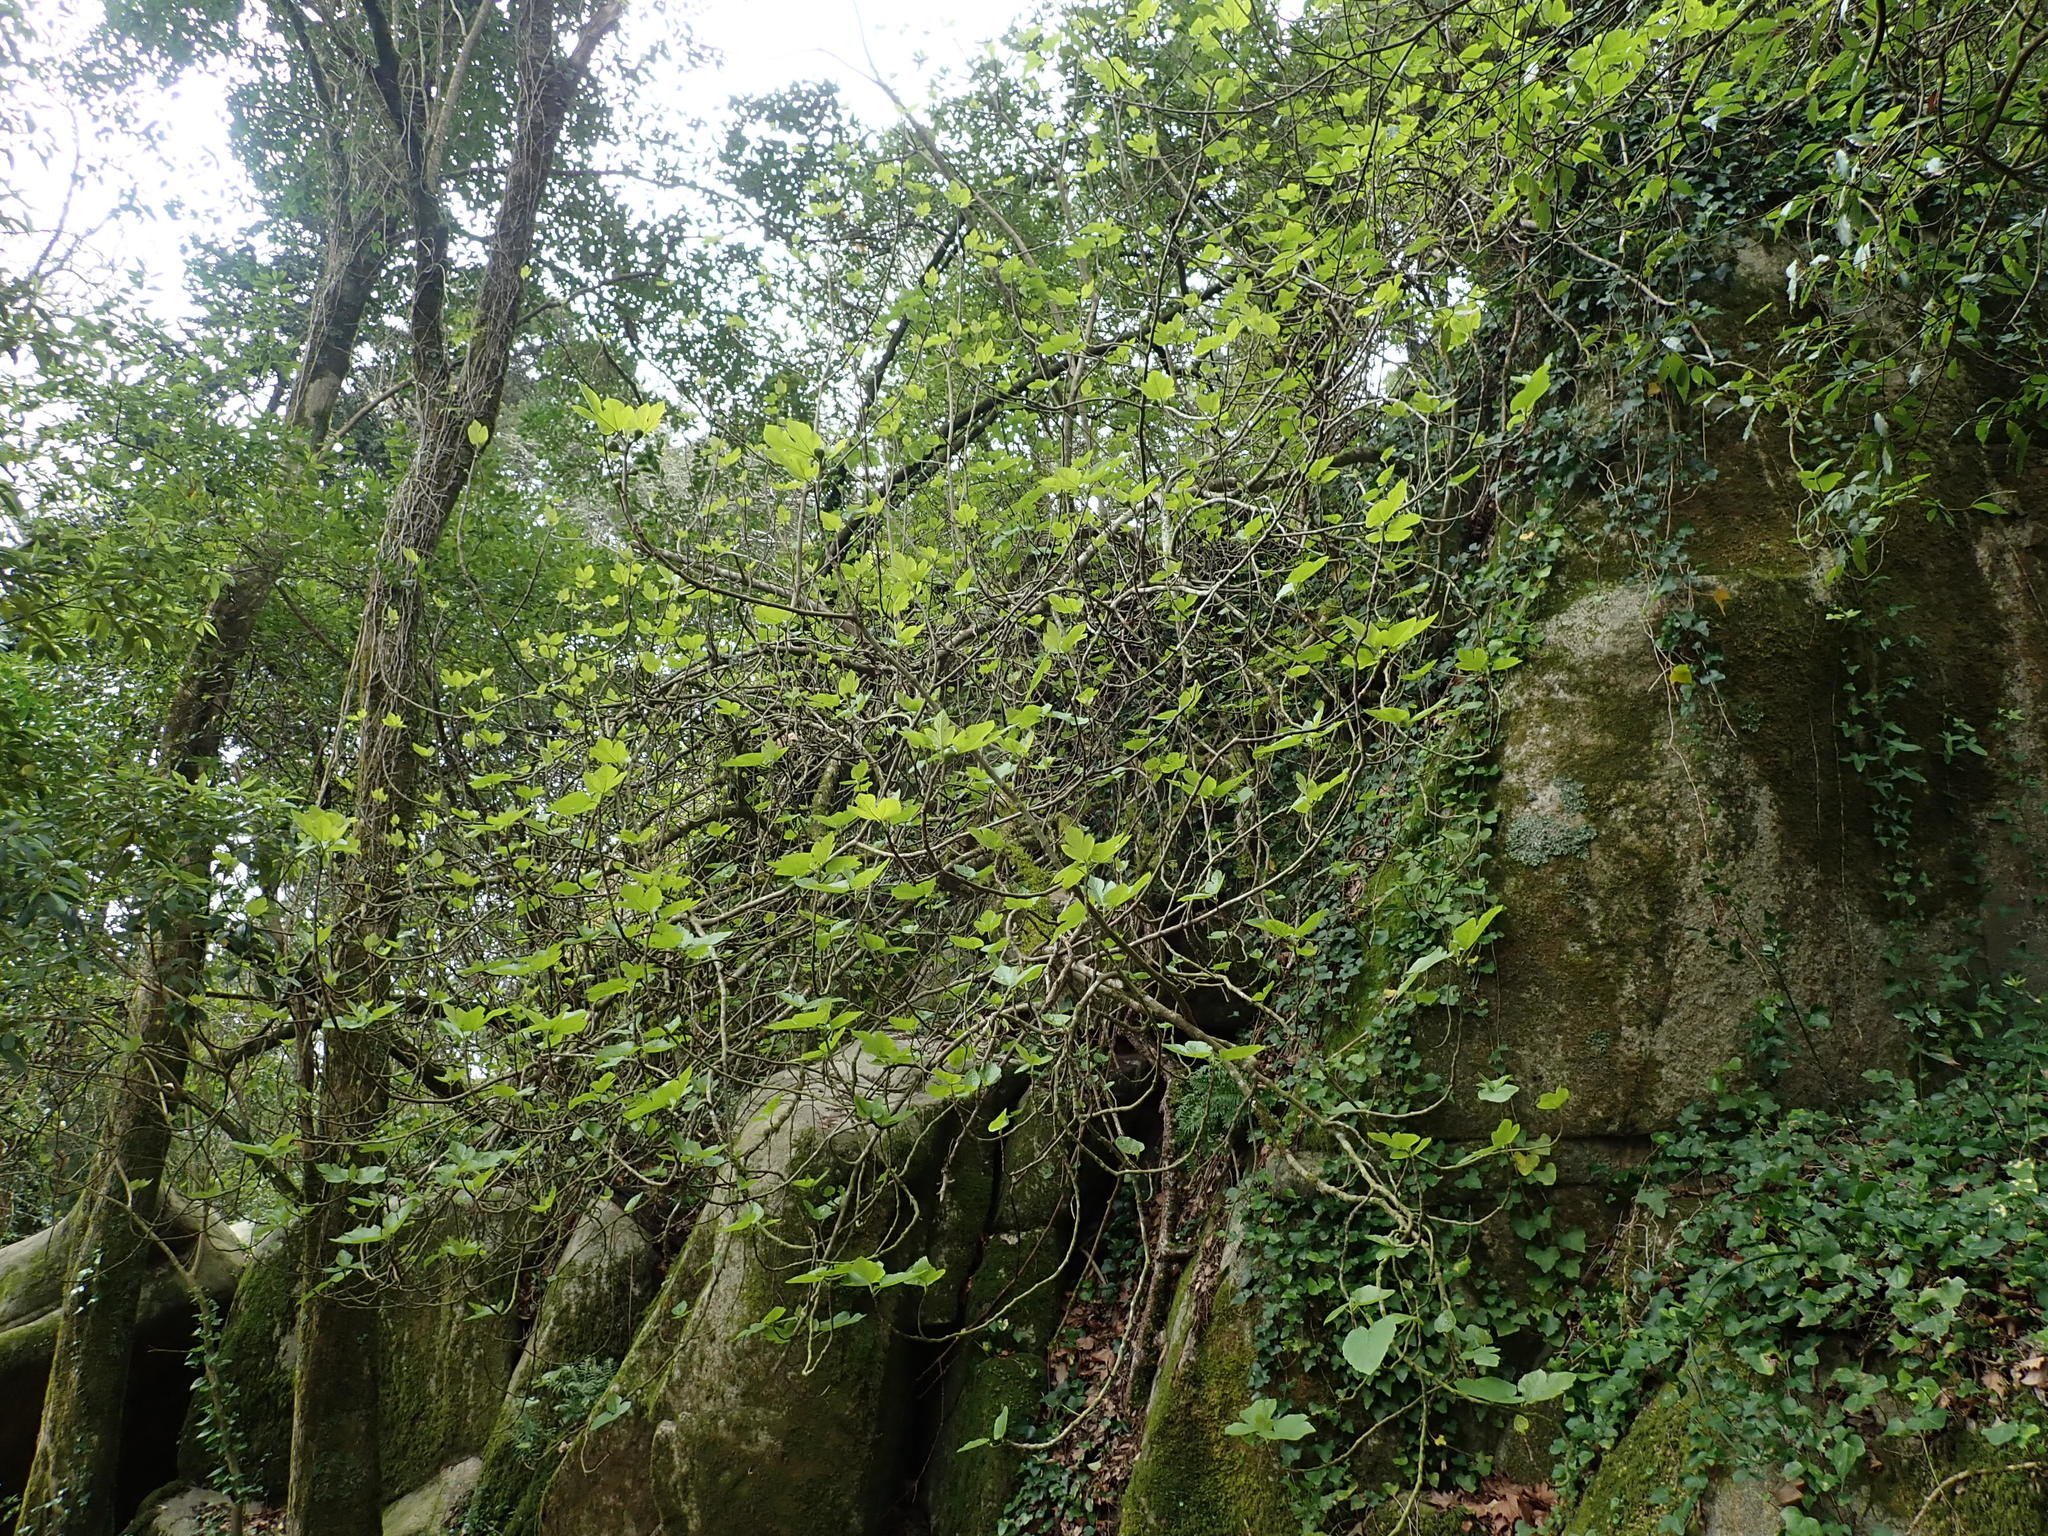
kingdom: Plantae
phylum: Tracheophyta
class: Magnoliopsida
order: Rosales
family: Moraceae
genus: Ficus
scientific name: Ficus carica
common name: Fig
